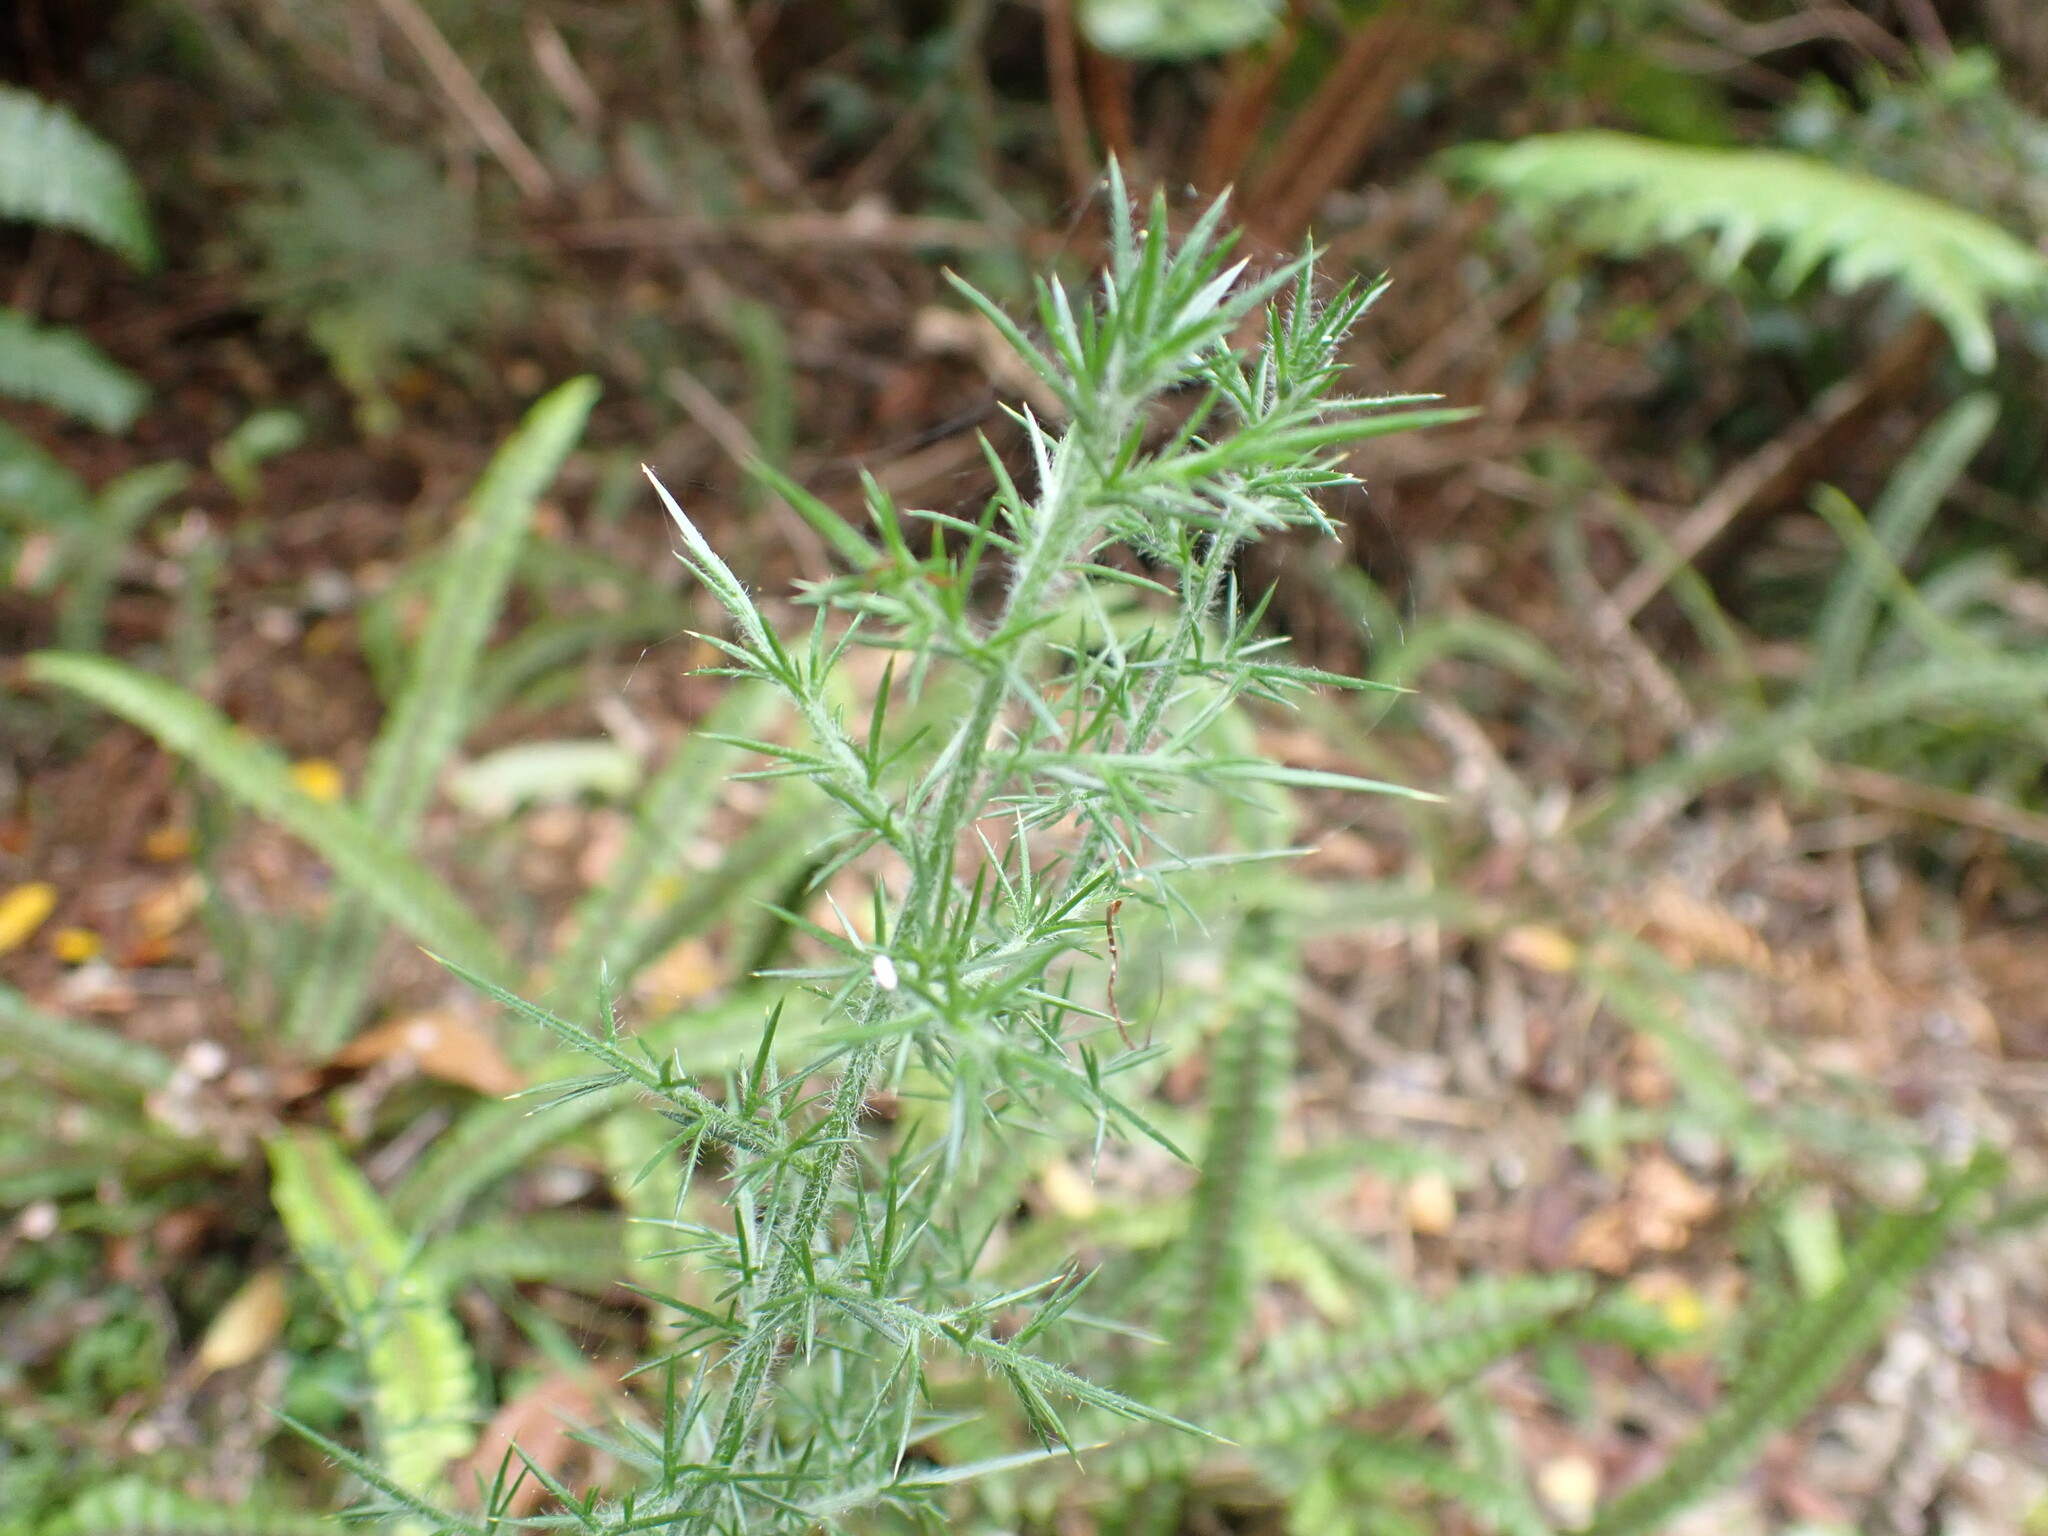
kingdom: Plantae
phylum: Tracheophyta
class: Magnoliopsida
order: Fabales
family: Fabaceae
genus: Ulex
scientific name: Ulex europaeus
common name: Common gorse
